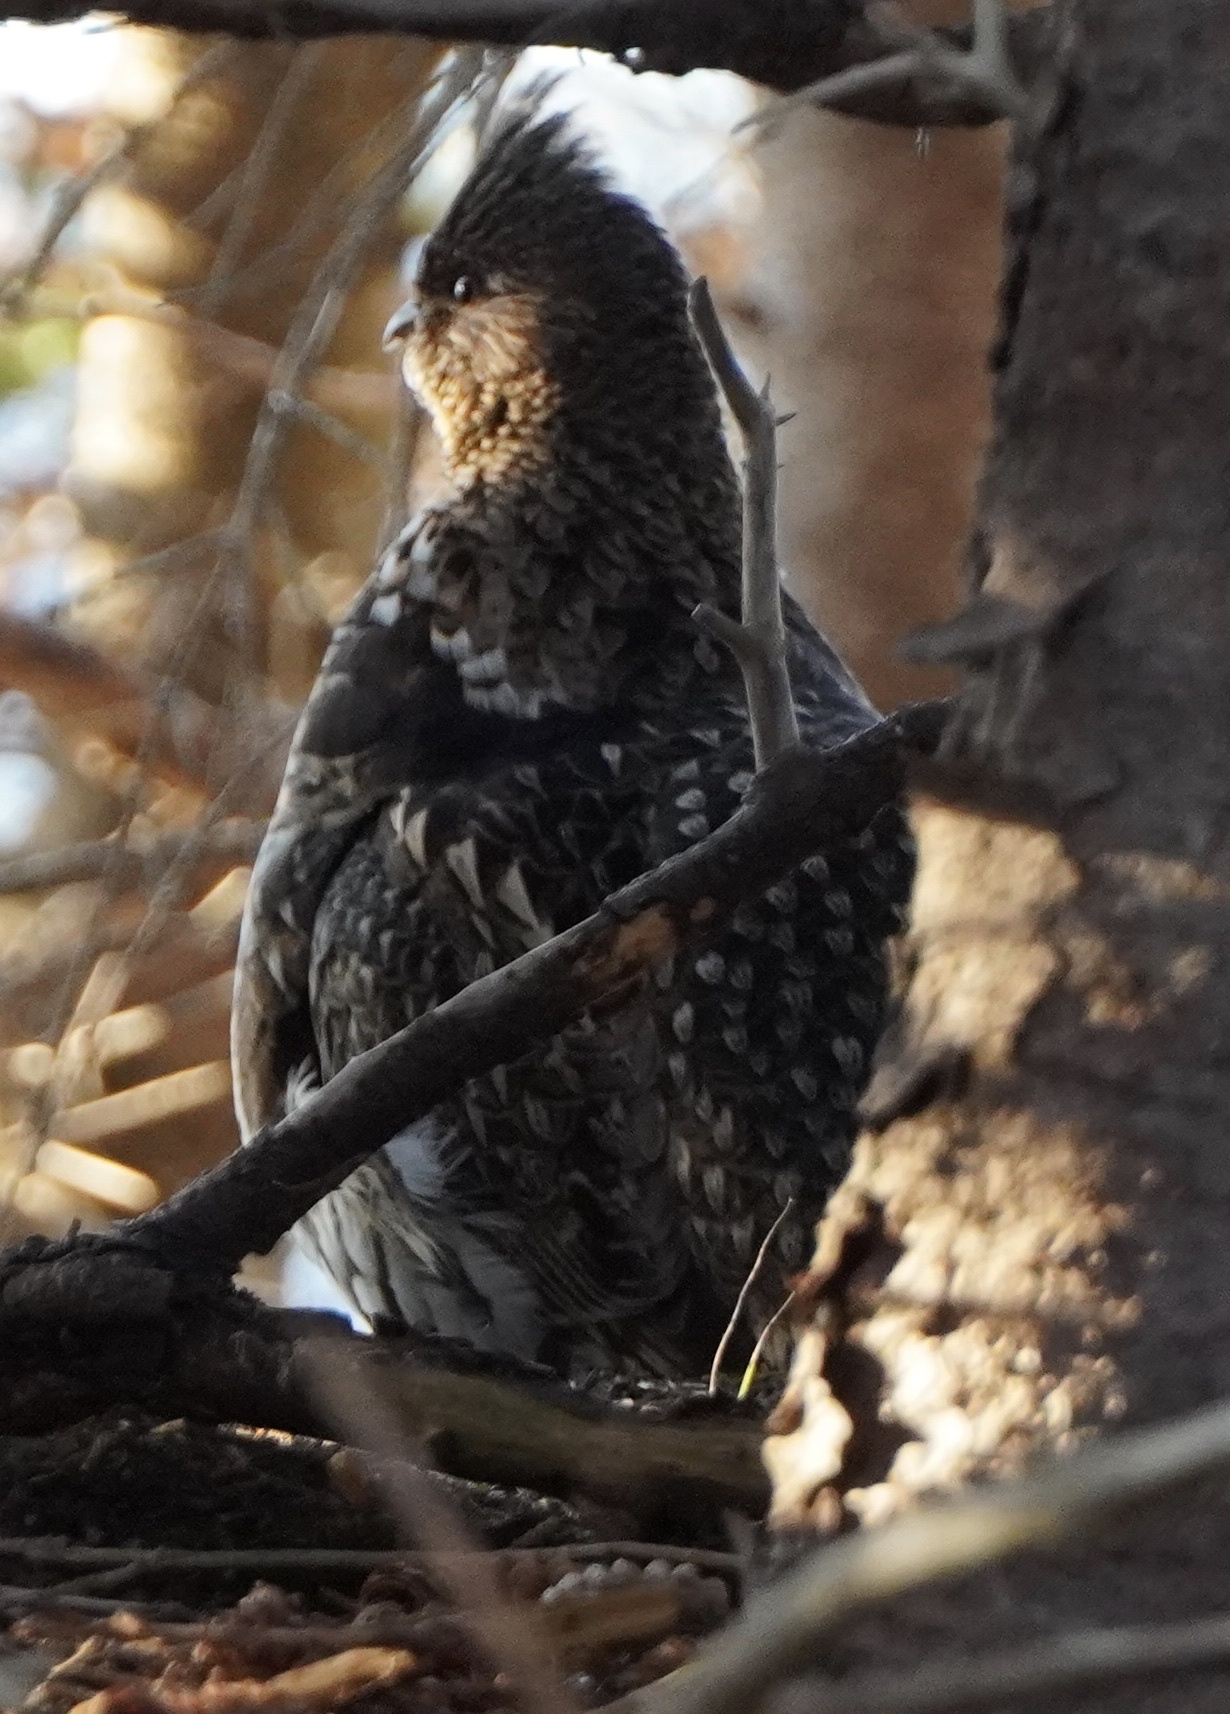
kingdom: Animalia
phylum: Chordata
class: Aves
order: Galliformes
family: Phasianidae
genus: Bonasa
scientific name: Bonasa umbellus
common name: Ruffed grouse
